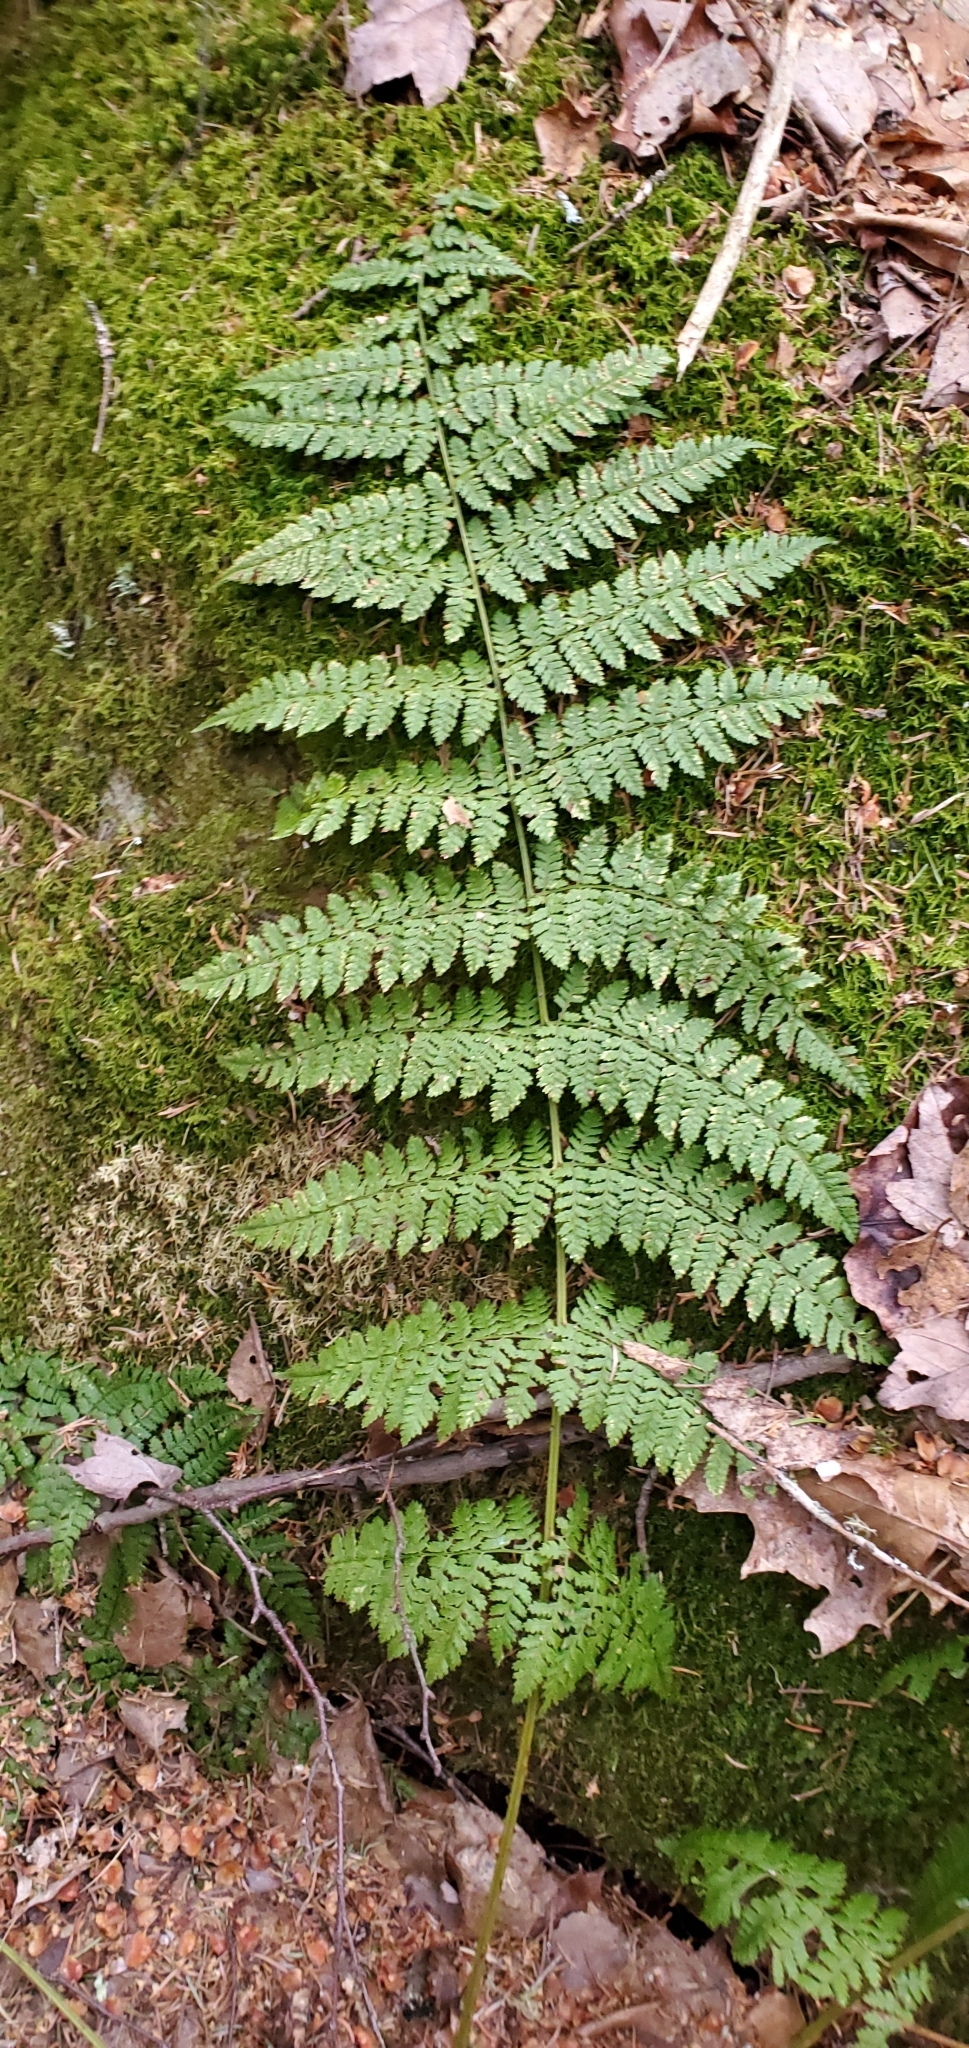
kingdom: Plantae
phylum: Tracheophyta
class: Polypodiopsida
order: Polypodiales
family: Dryopteridaceae
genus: Dryopteris
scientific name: Dryopteris intermedia
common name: Evergreen wood fern
